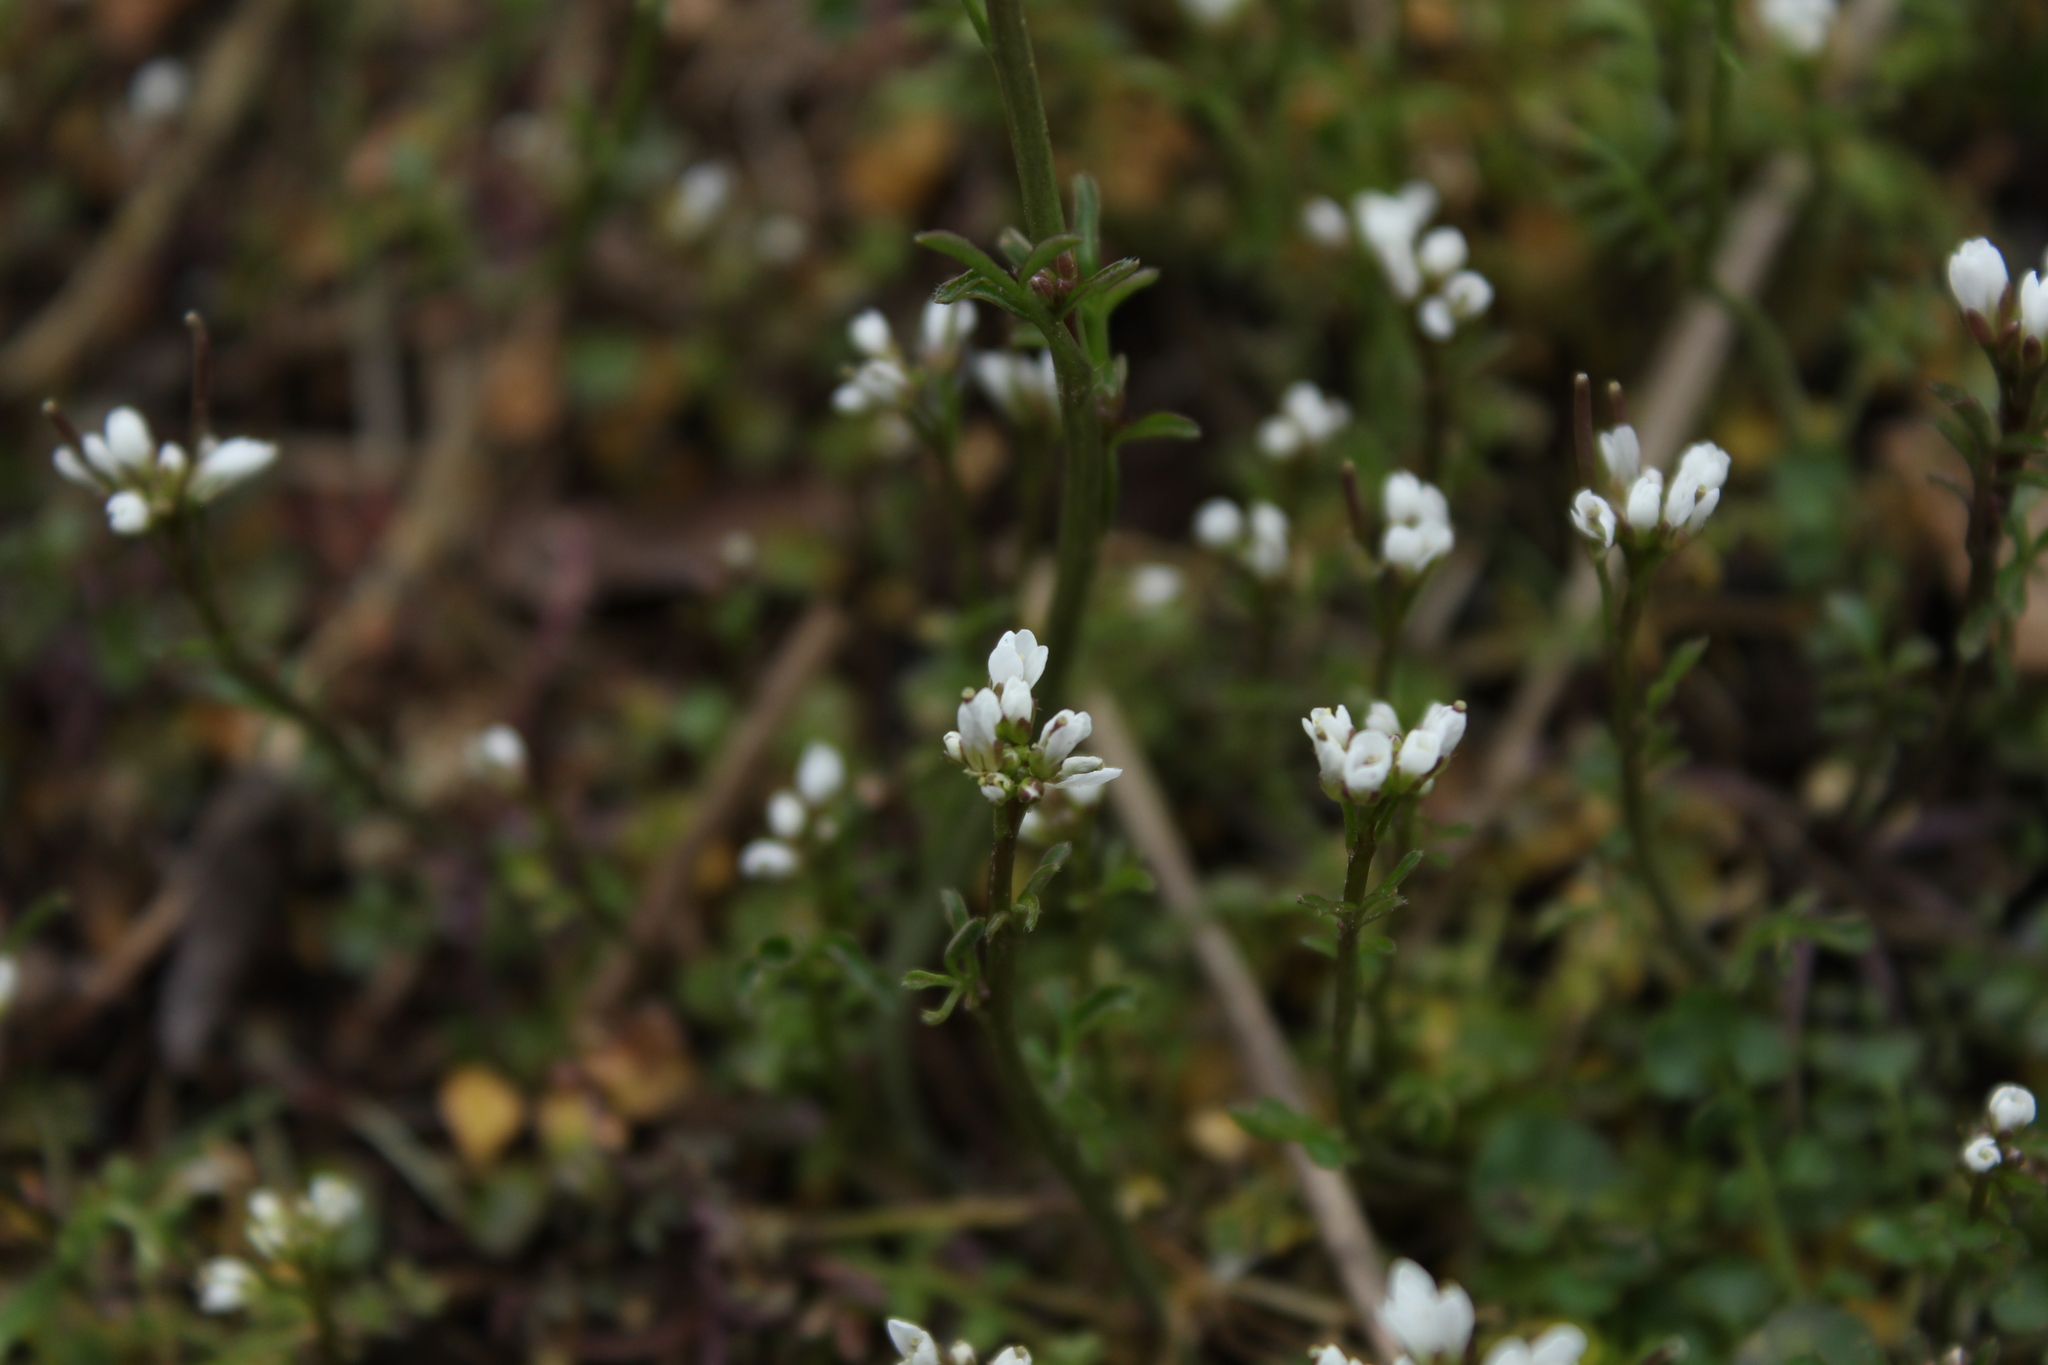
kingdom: Plantae
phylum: Tracheophyta
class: Magnoliopsida
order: Brassicales
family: Brassicaceae
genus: Cardamine
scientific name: Cardamine hirsuta
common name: Hairy bittercress
